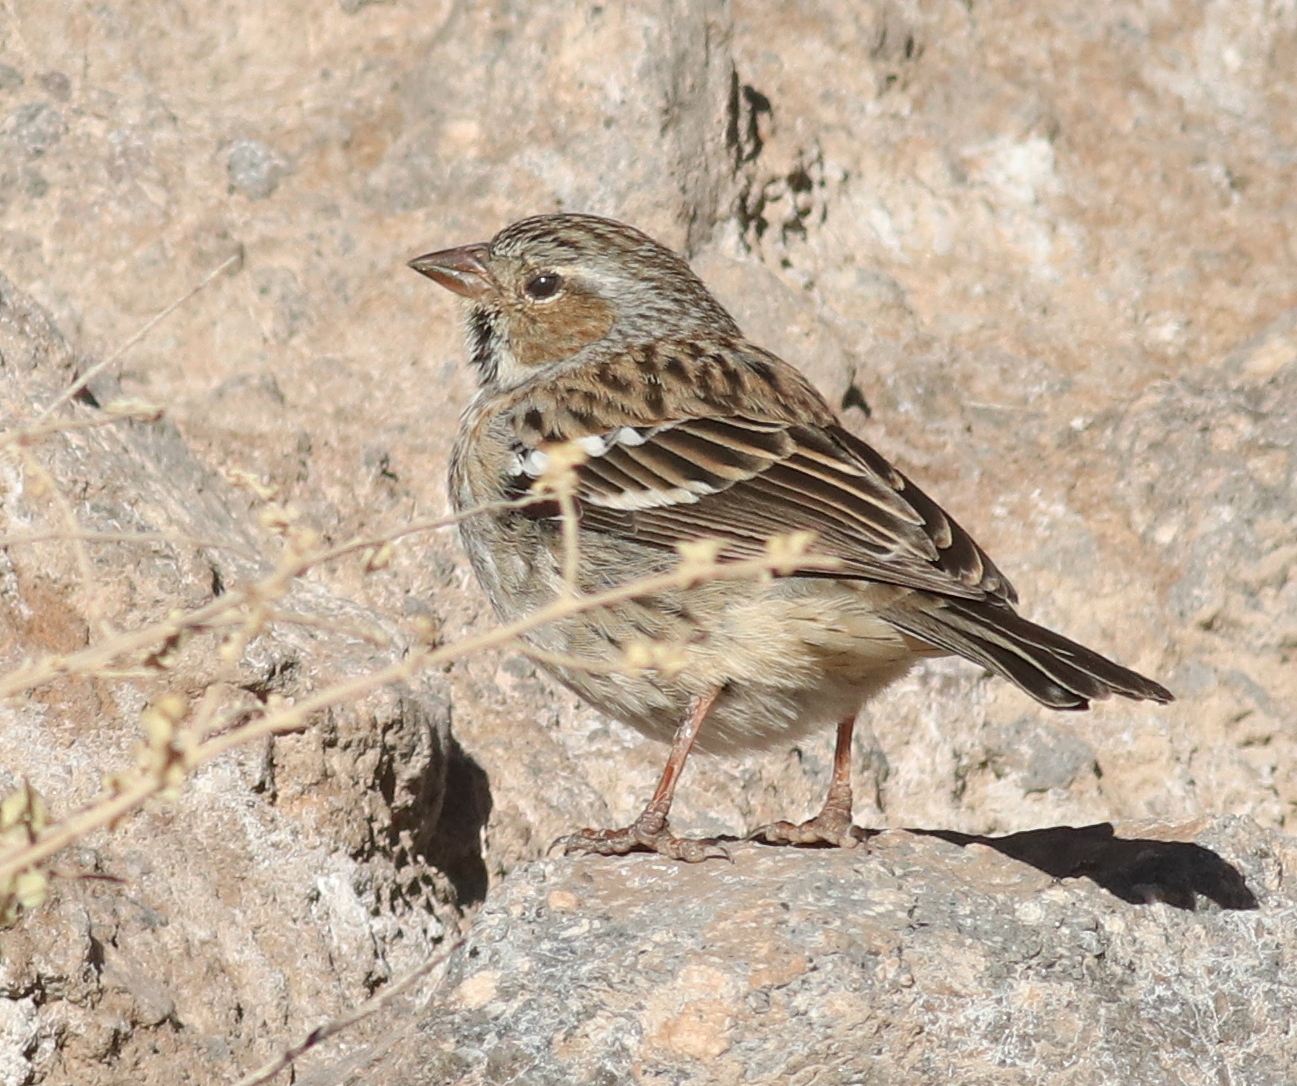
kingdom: Animalia
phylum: Chordata
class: Aves
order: Passeriformes
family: Thraupidae
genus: Rhopospina
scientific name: Rhopospina fruticeti
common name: Mourning sierra finch
